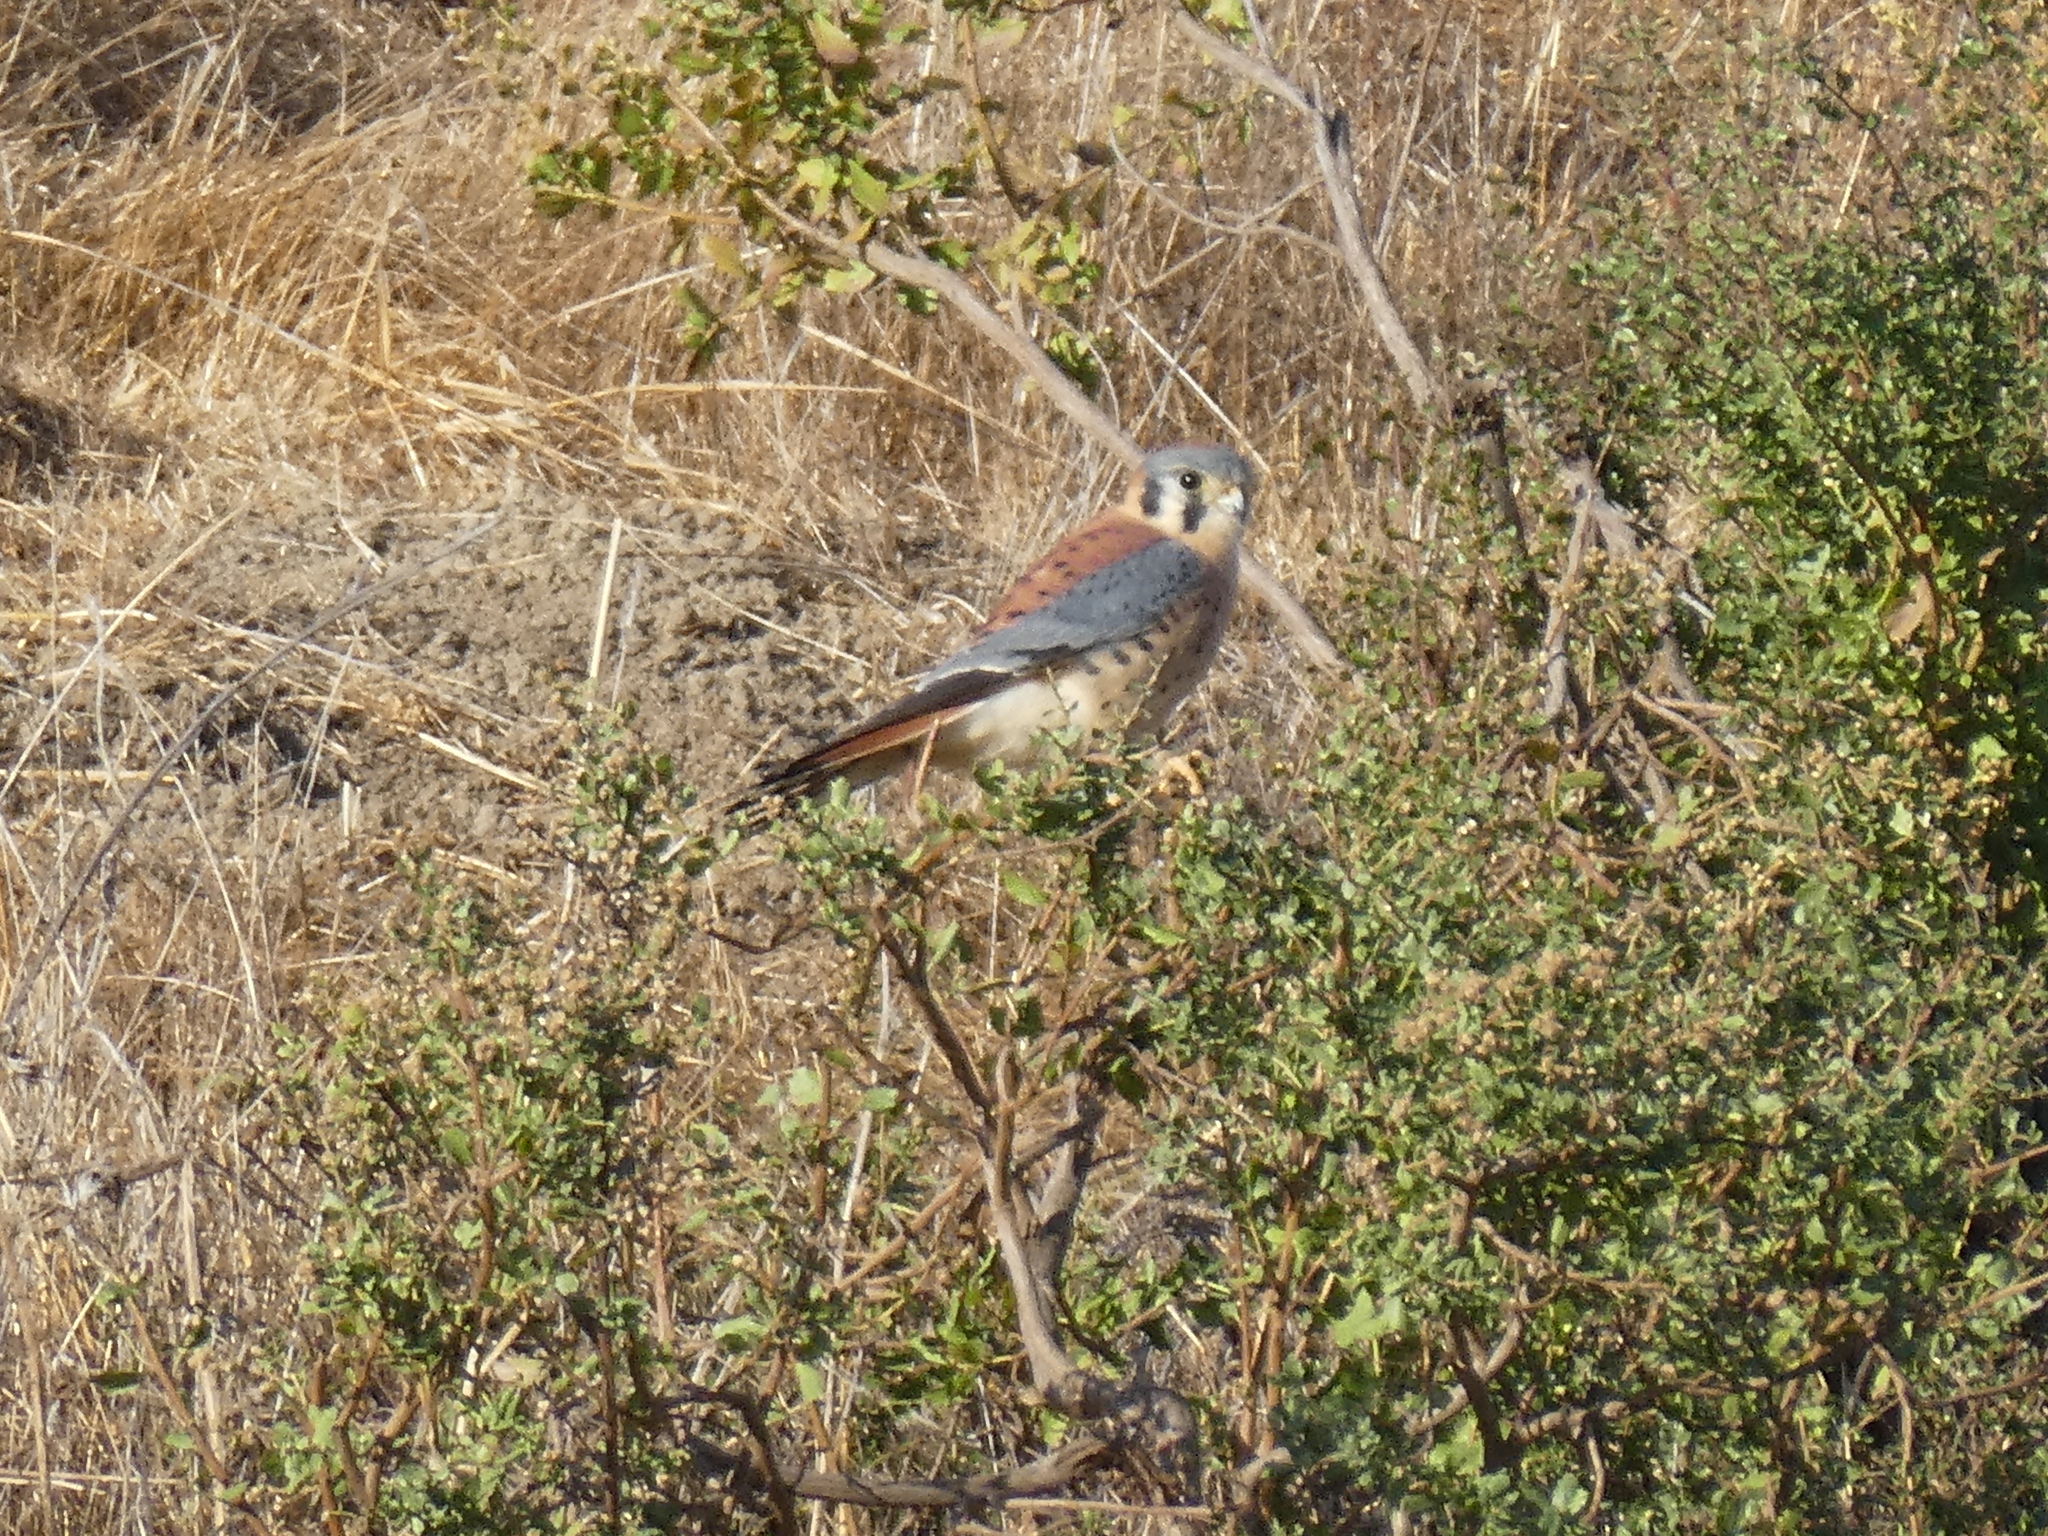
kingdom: Animalia
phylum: Chordata
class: Aves
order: Falconiformes
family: Falconidae
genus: Falco
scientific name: Falco sparverius
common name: American kestrel
